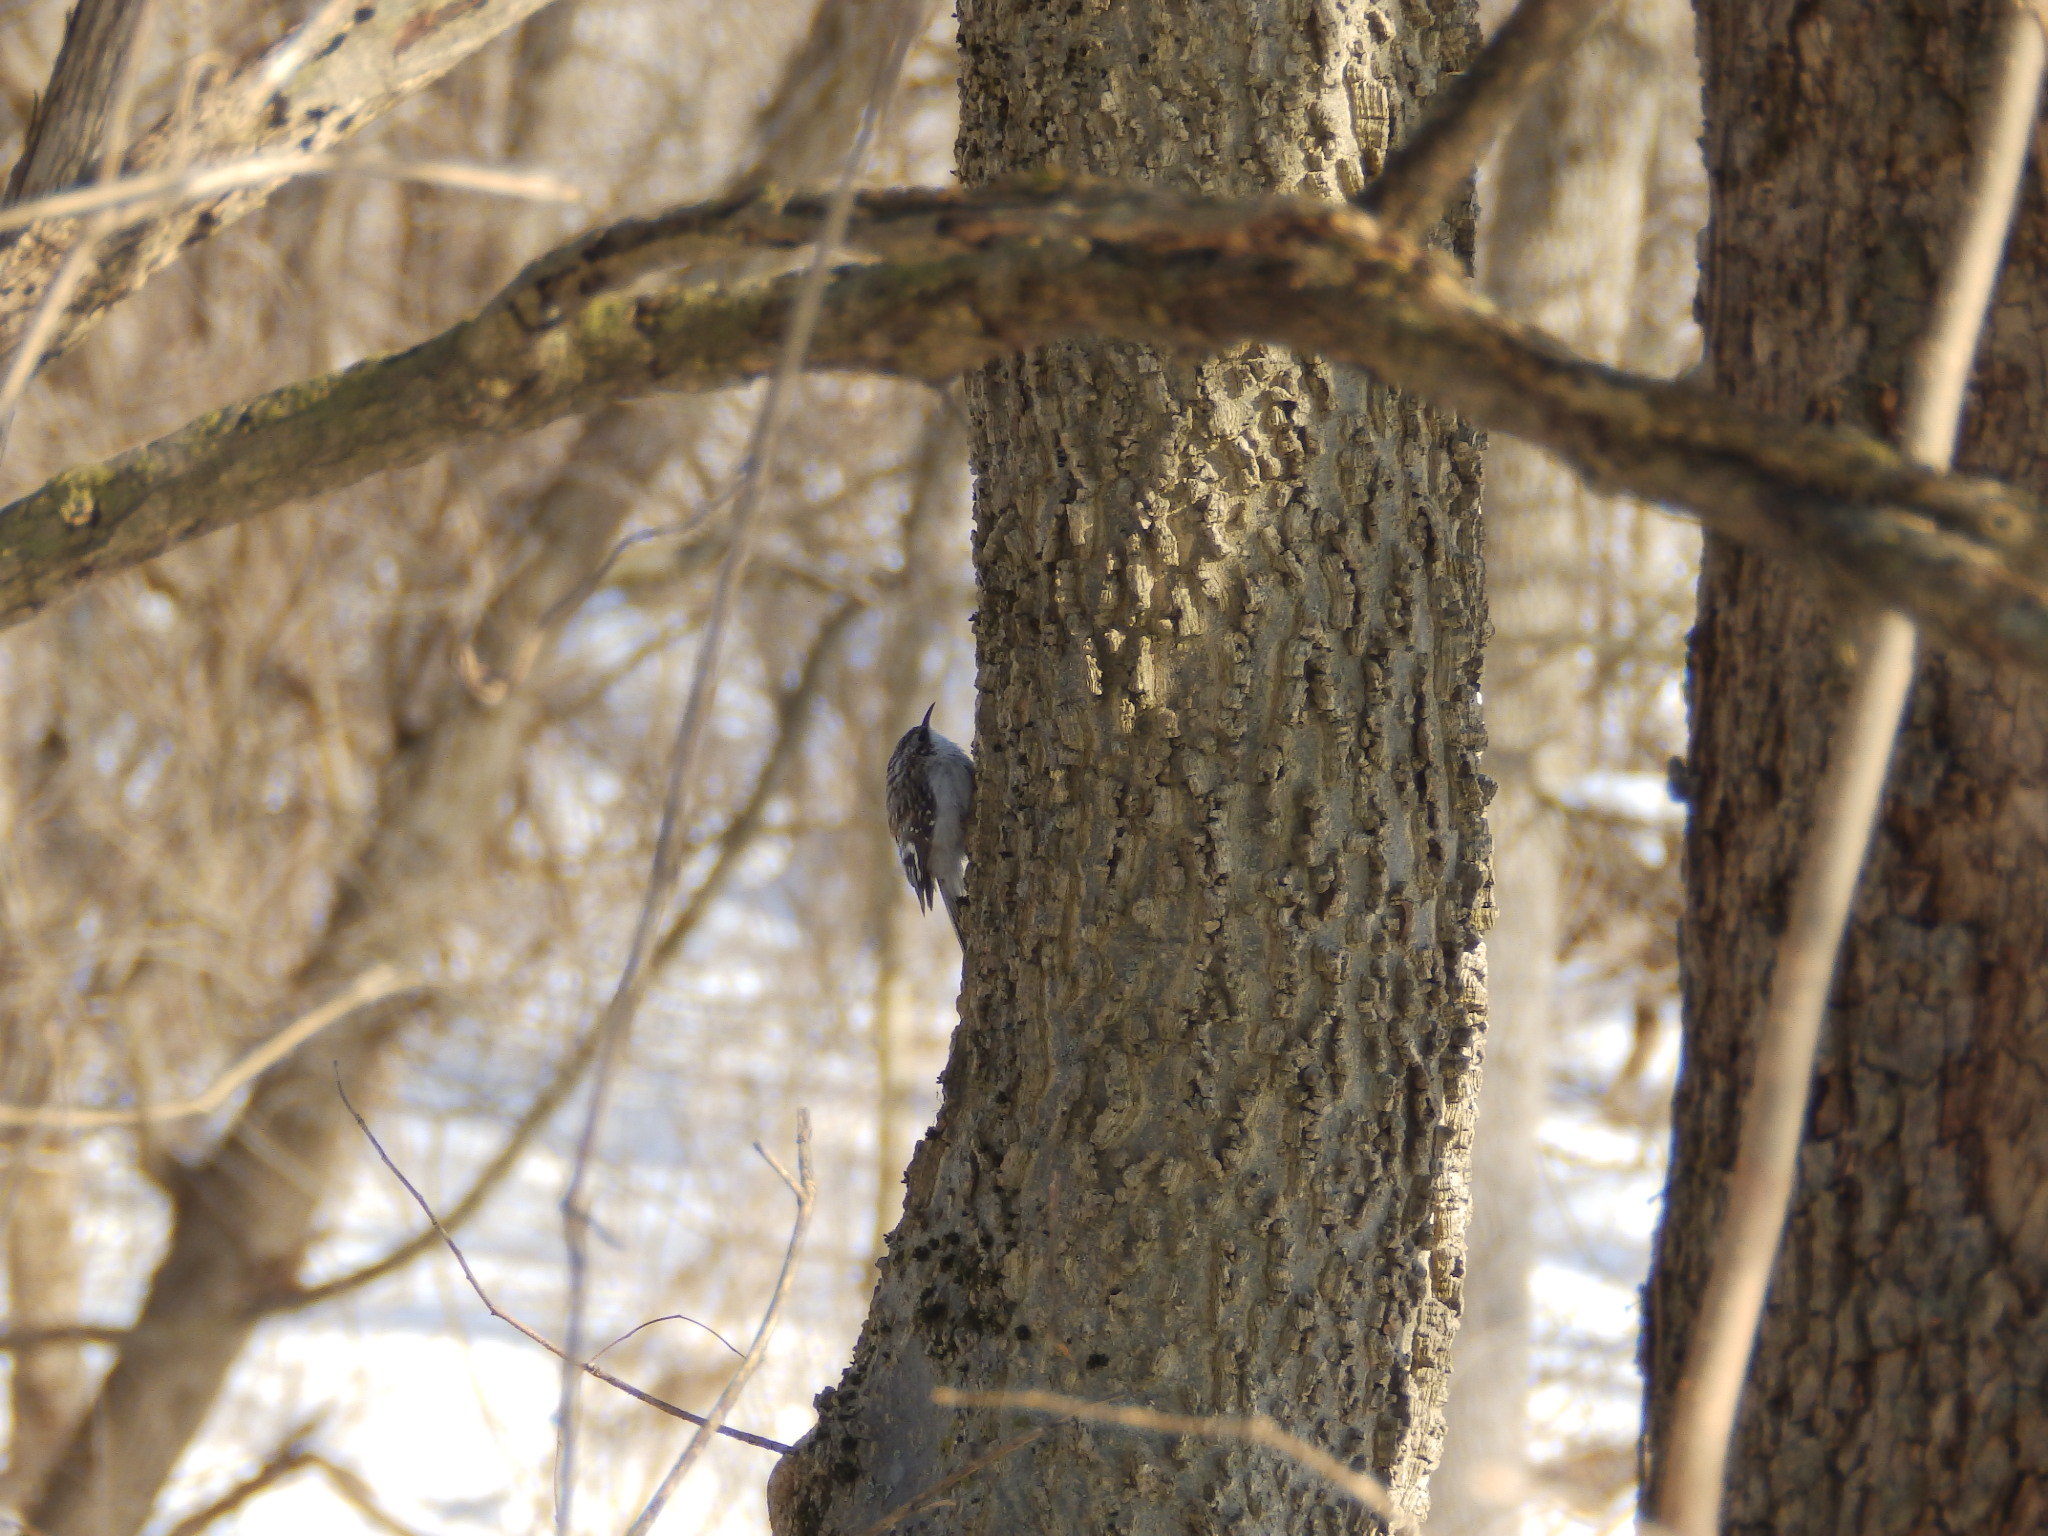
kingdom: Animalia
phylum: Chordata
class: Aves
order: Passeriformes
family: Certhiidae
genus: Certhia
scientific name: Certhia americana
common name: Brown creeper
